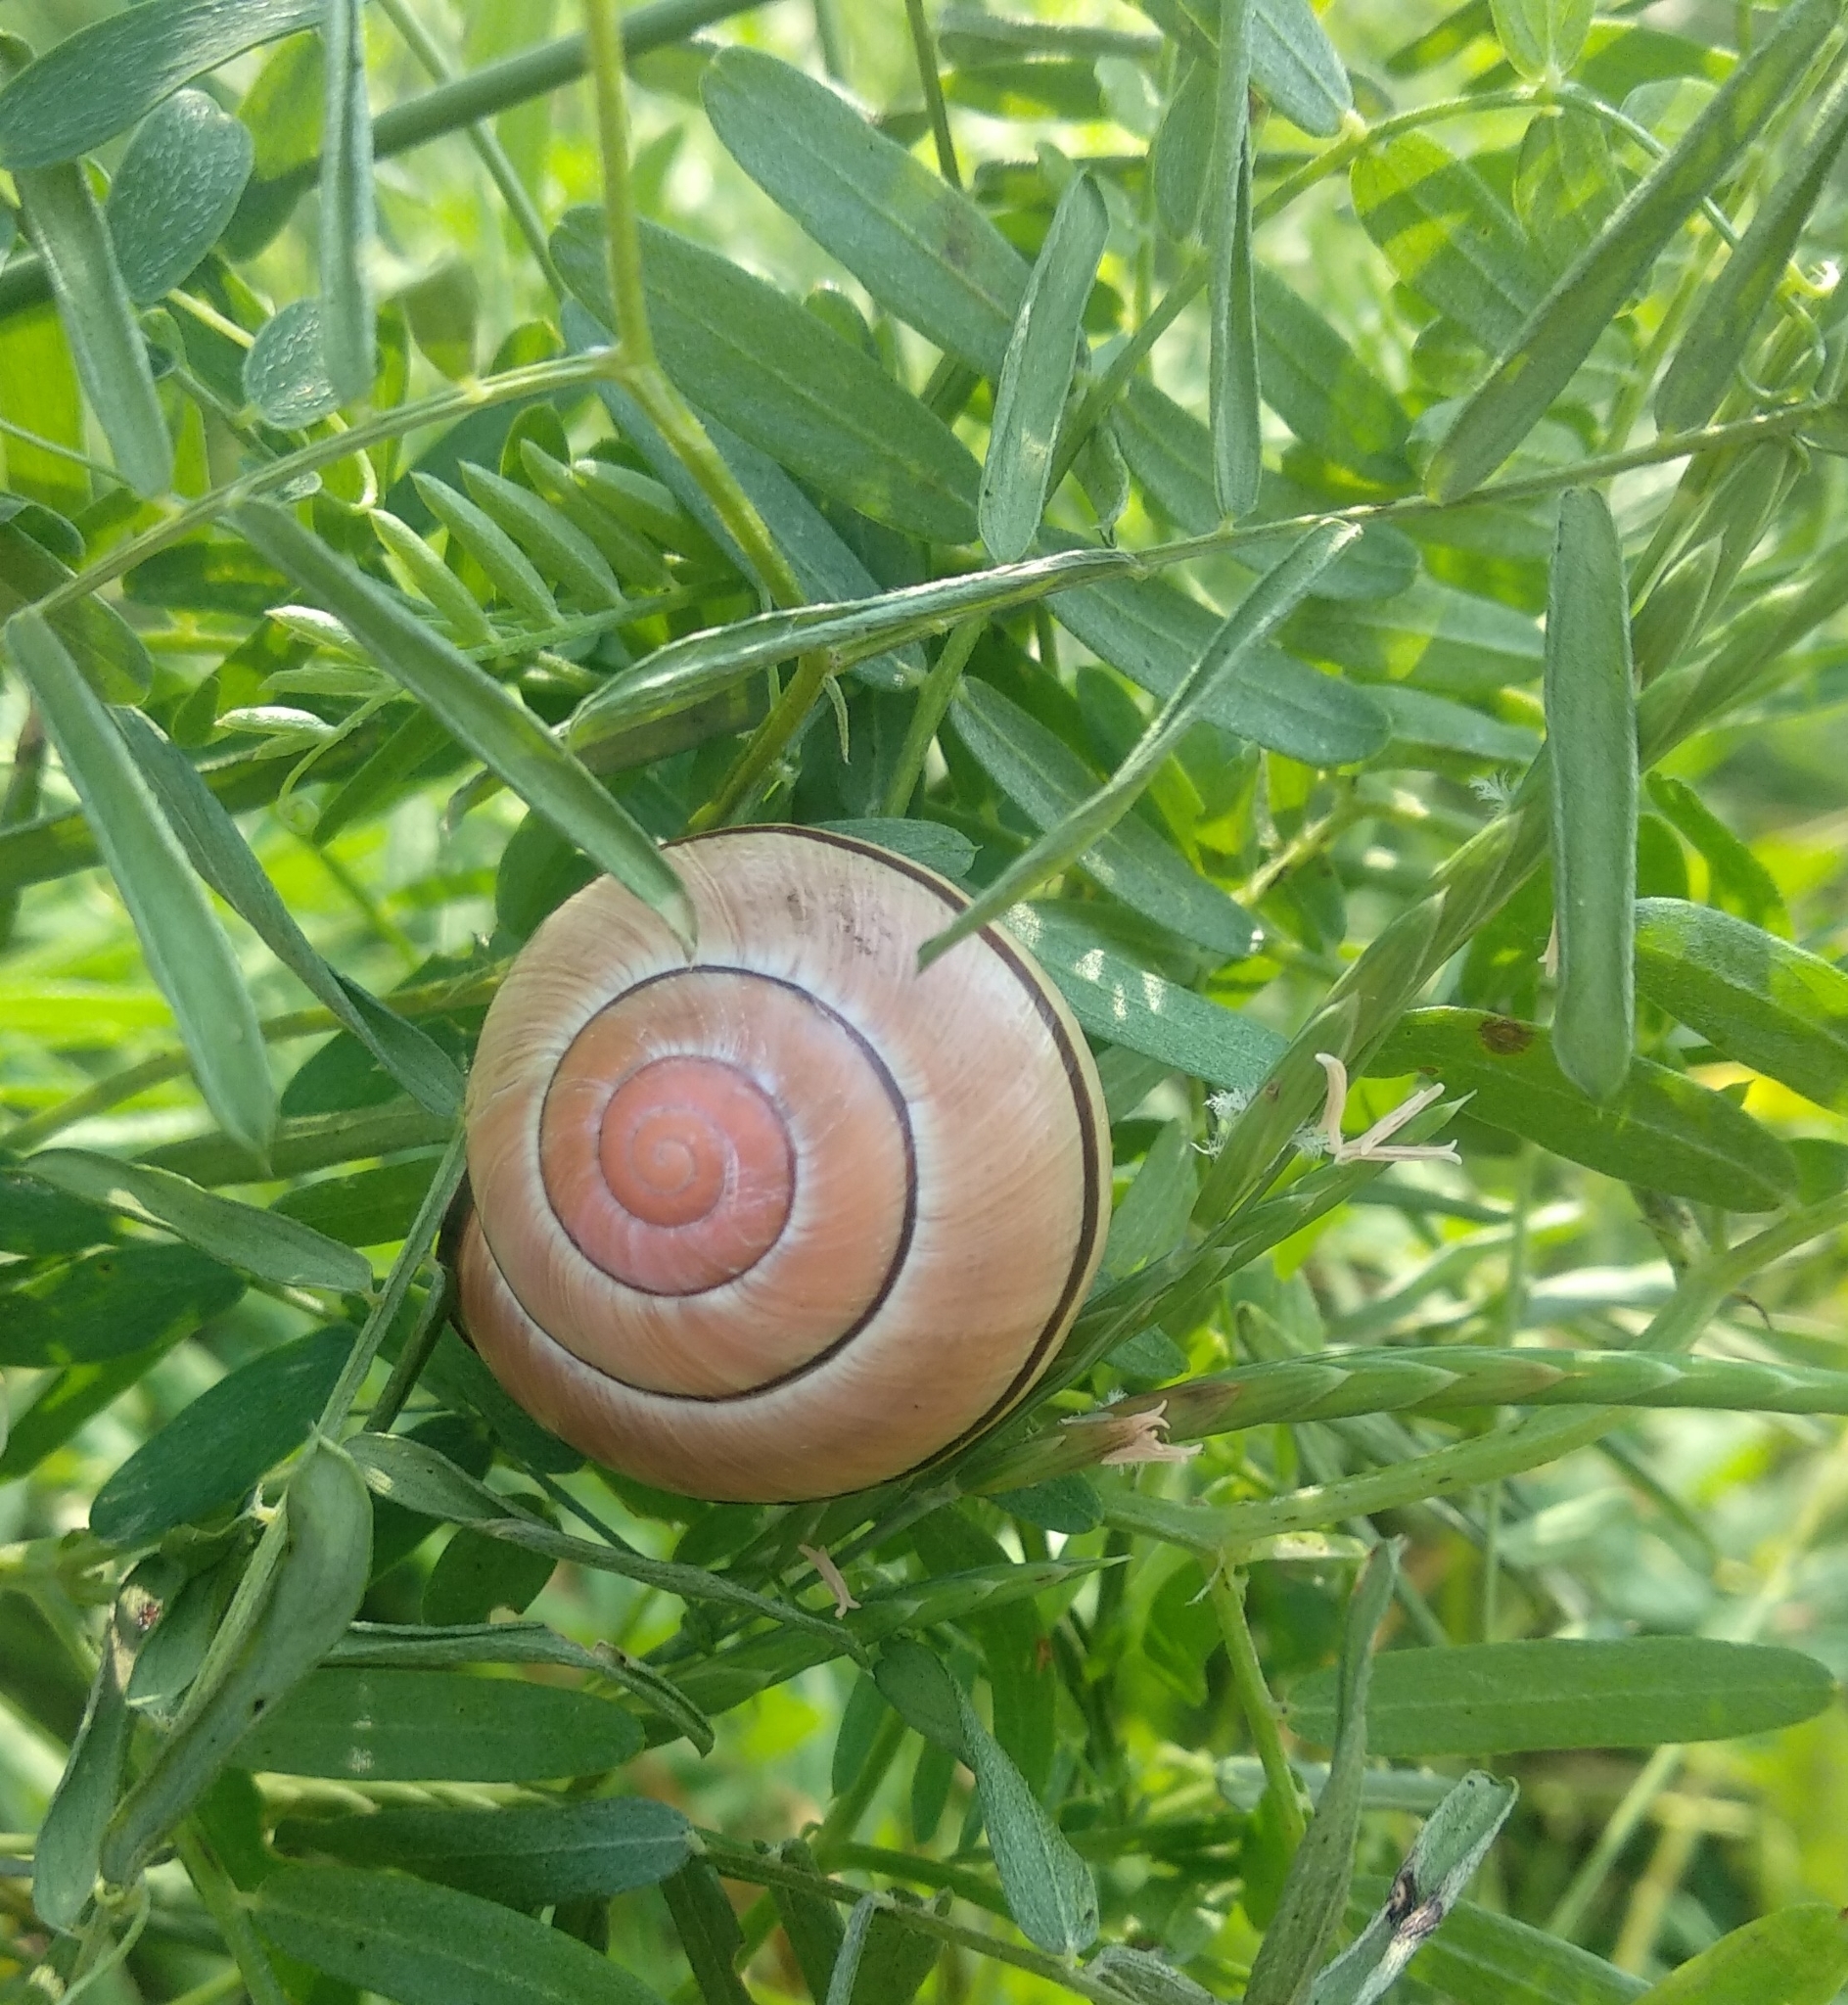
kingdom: Animalia
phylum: Mollusca
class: Gastropoda
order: Stylommatophora
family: Helicidae
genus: Cepaea
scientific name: Cepaea nemoralis
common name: Grovesnail
